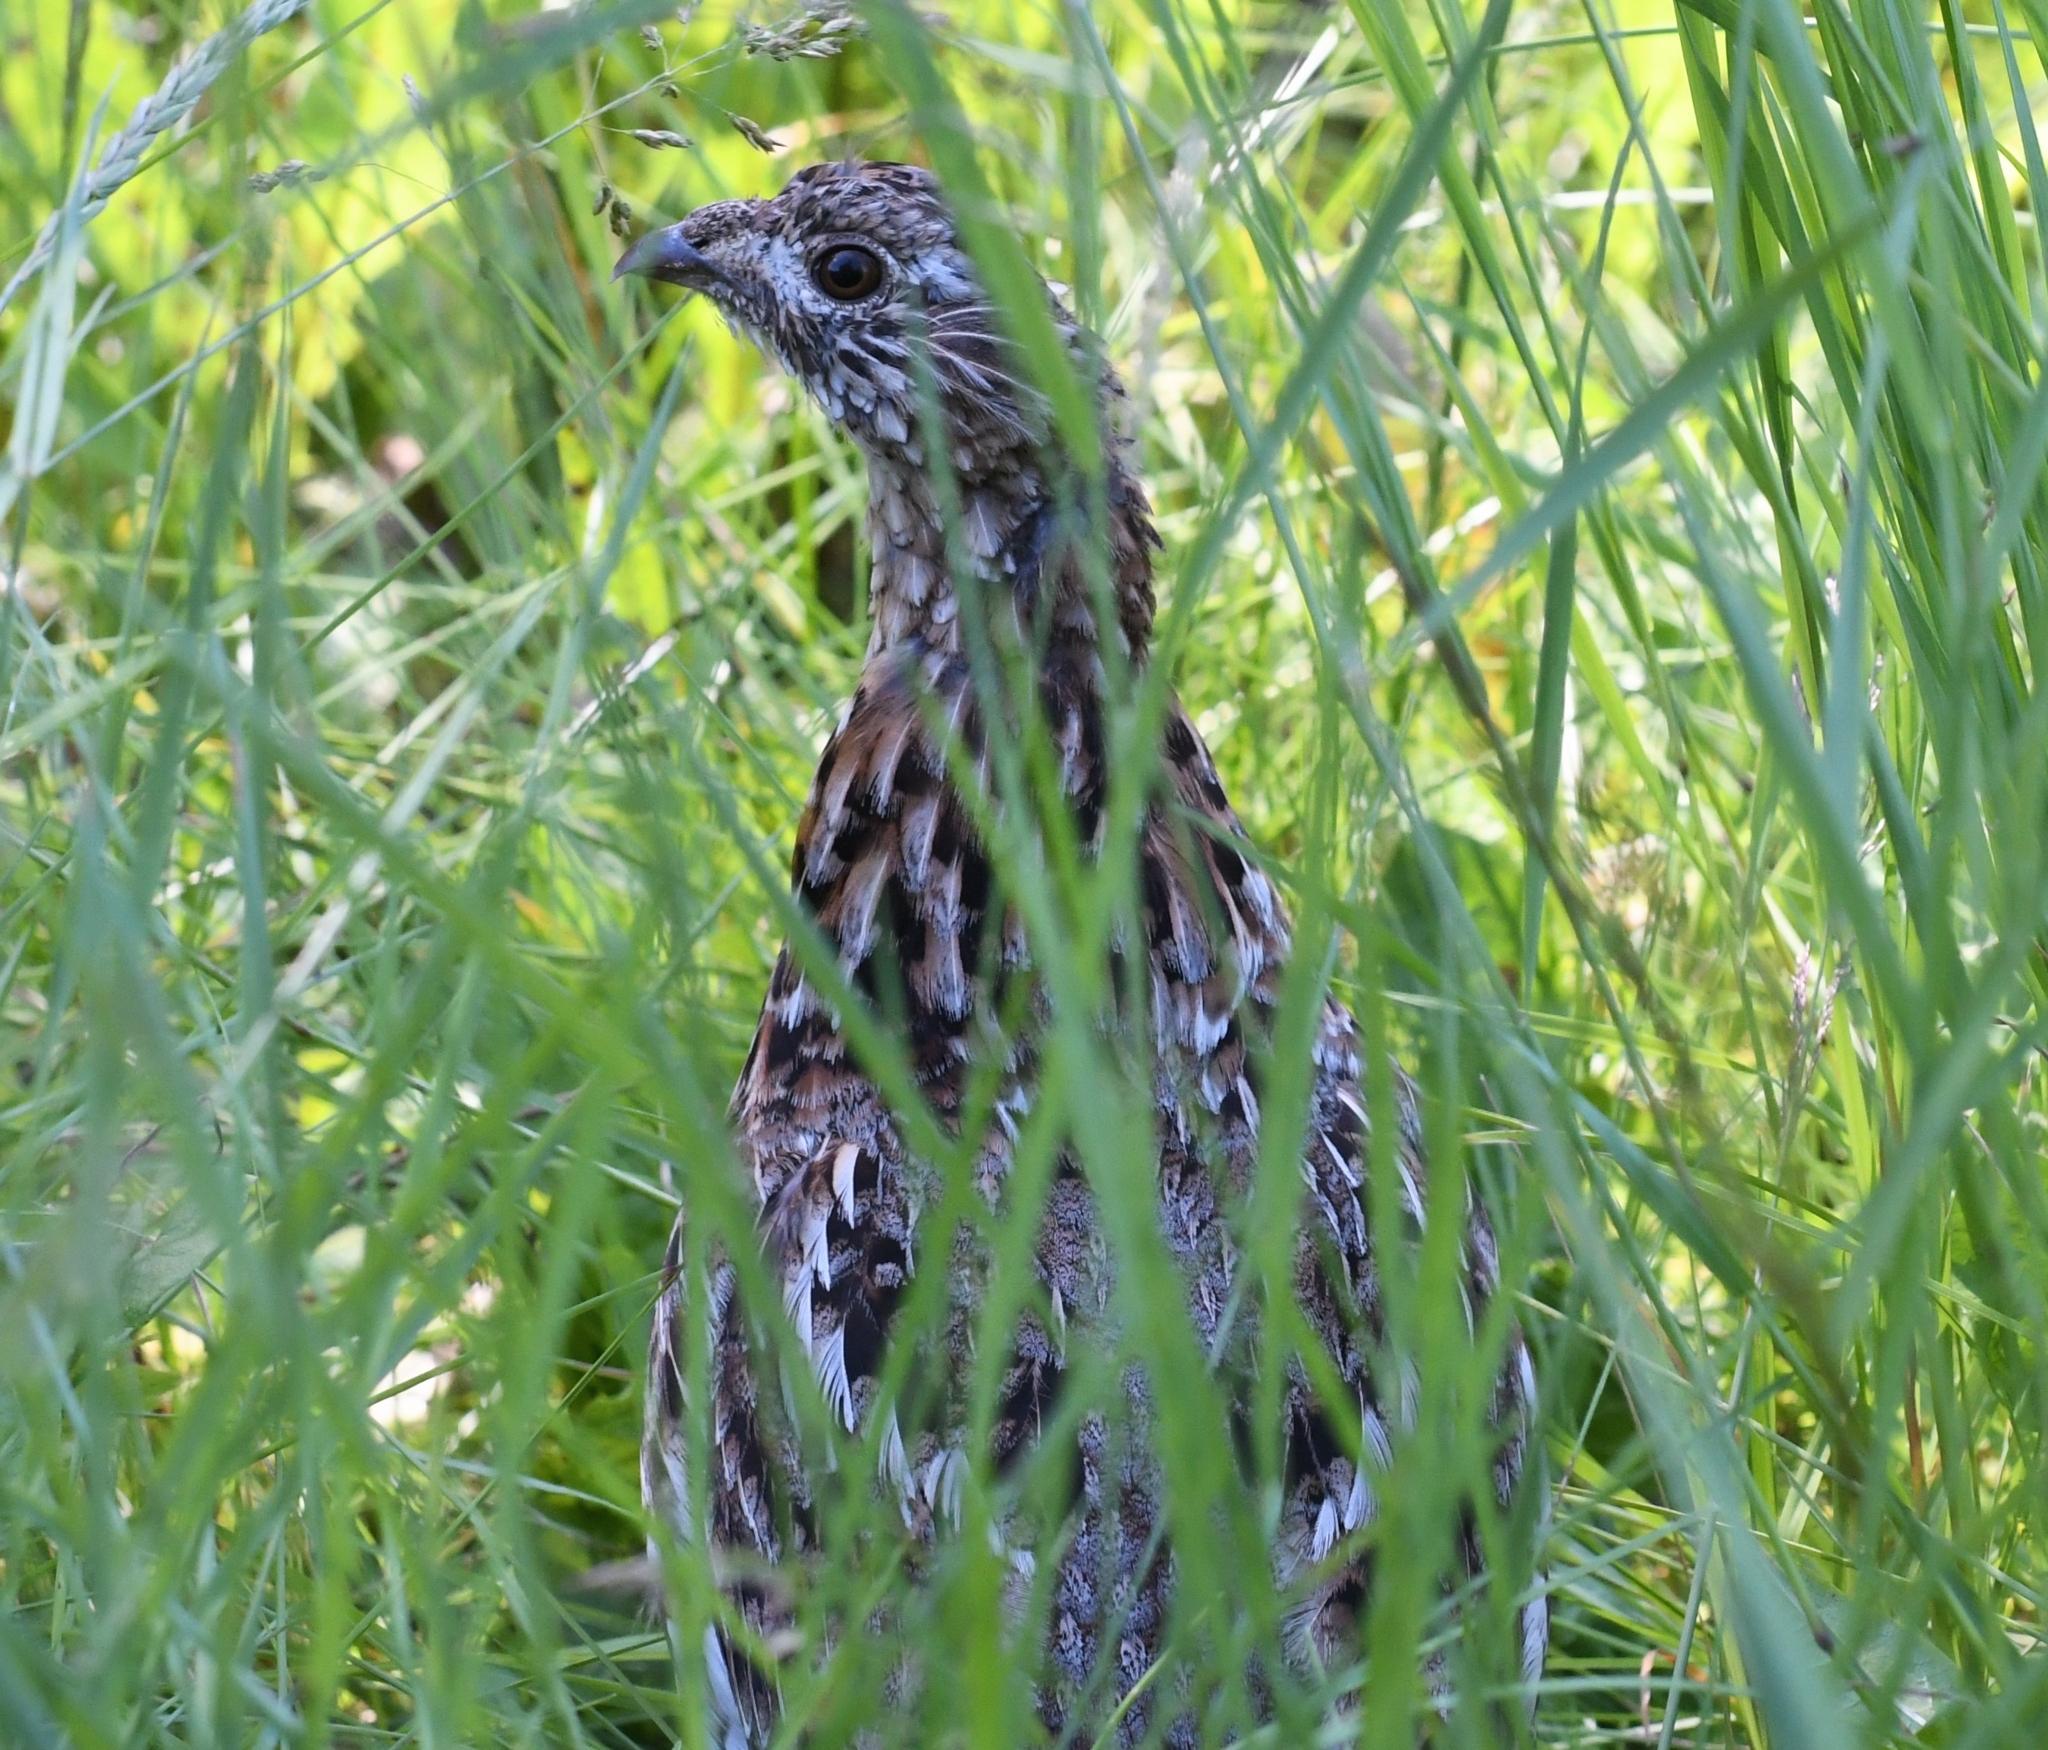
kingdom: Animalia
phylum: Chordata
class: Aves
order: Galliformes
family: Phasianidae
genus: Bonasa
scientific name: Bonasa umbellus
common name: Ruffed grouse
